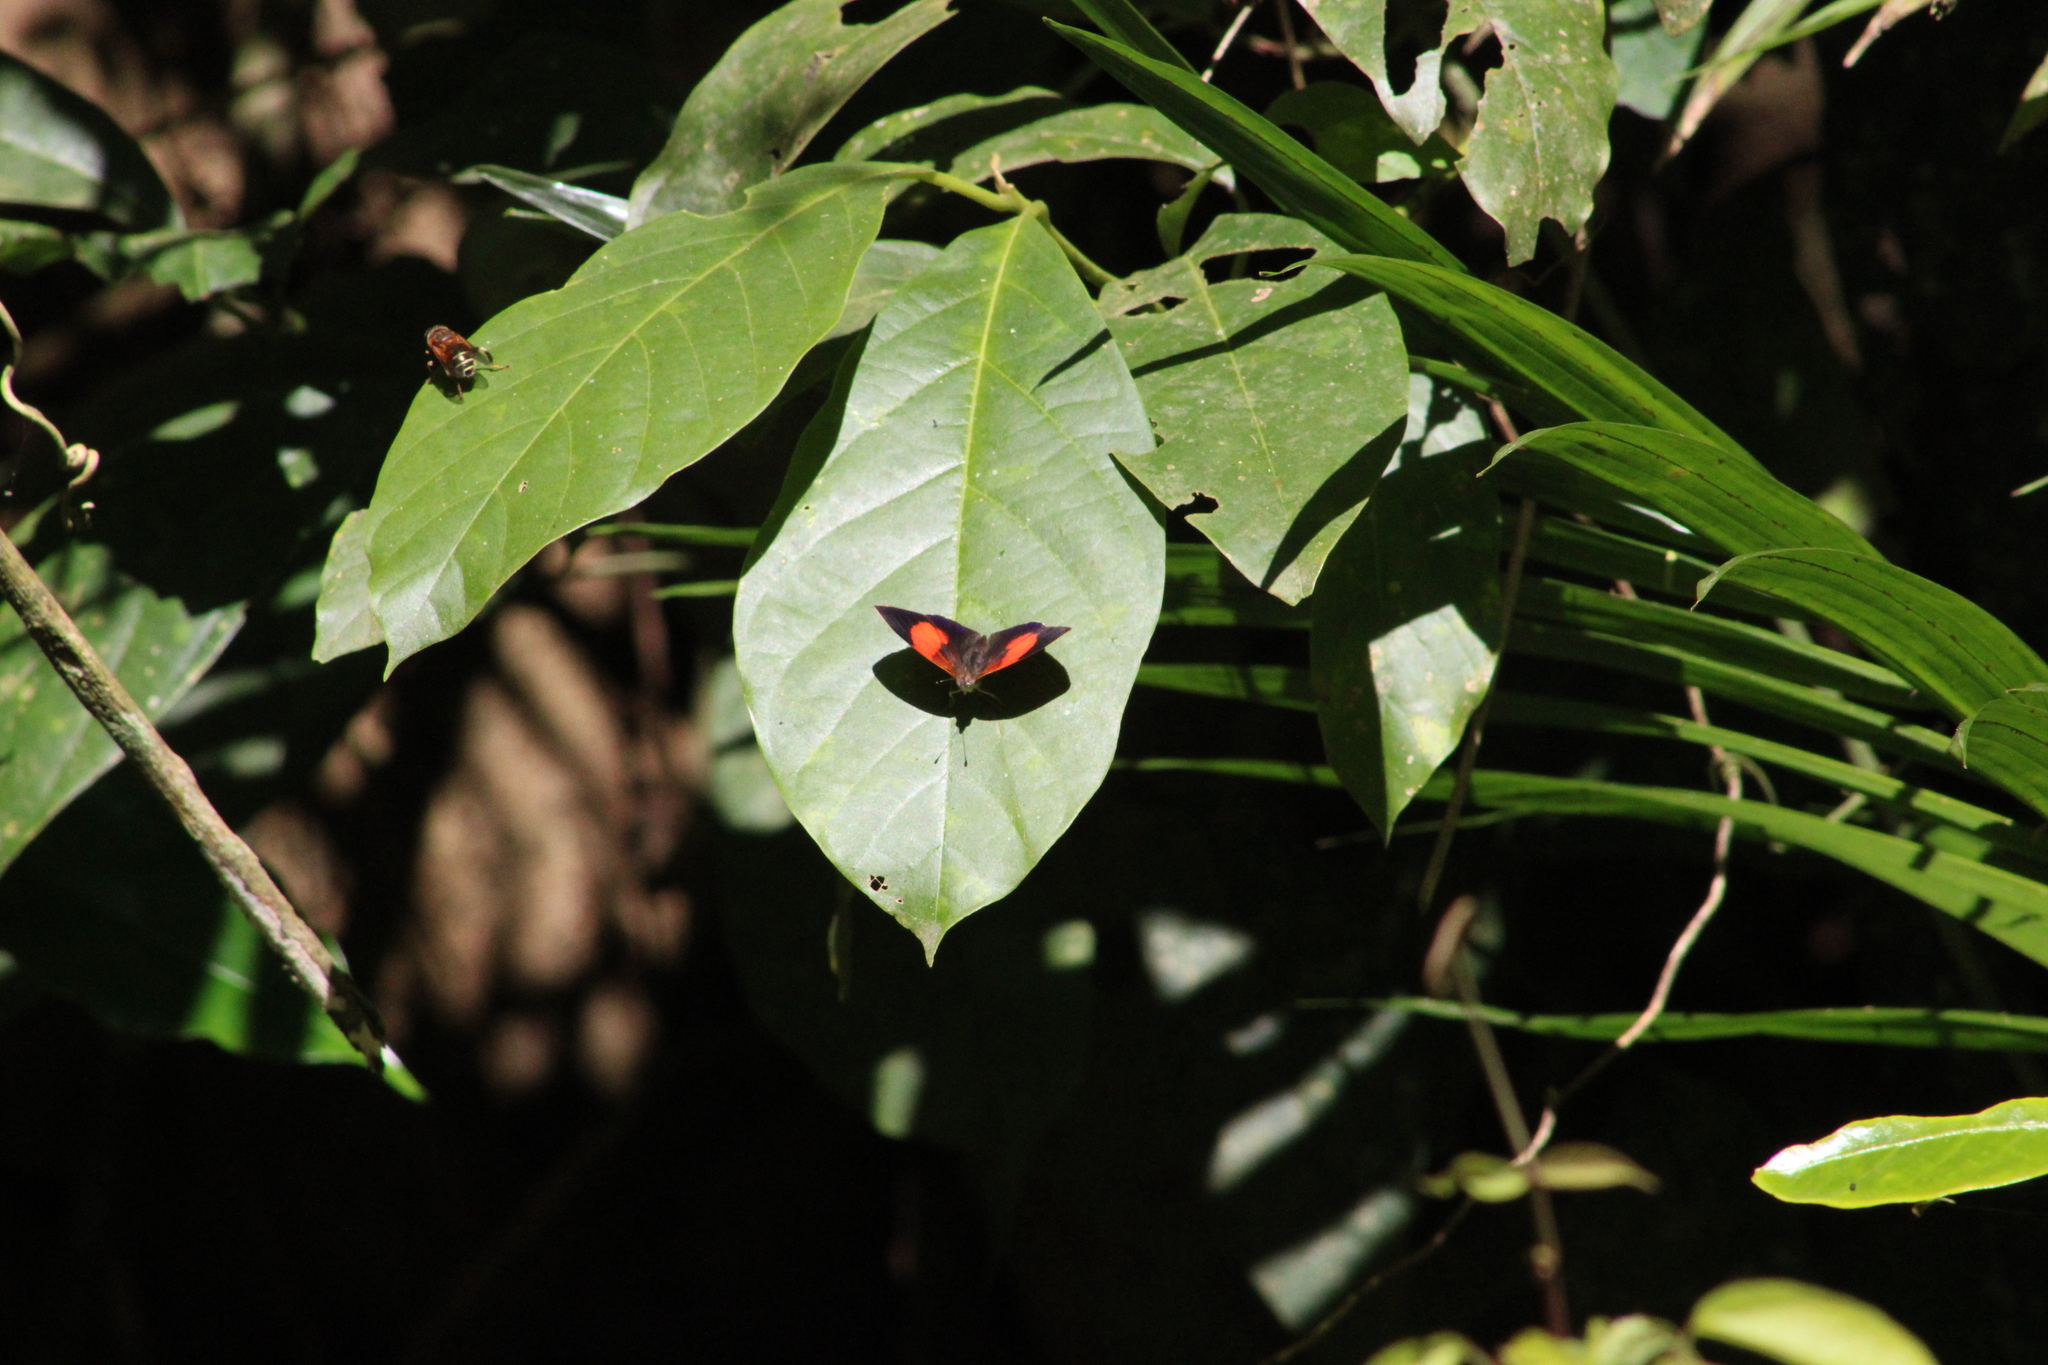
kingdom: Animalia
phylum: Arthropoda
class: Insecta
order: Lepidoptera
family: Nymphalidae
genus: Haematera
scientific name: Haematera pyrame
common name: Blind eighty-eight
